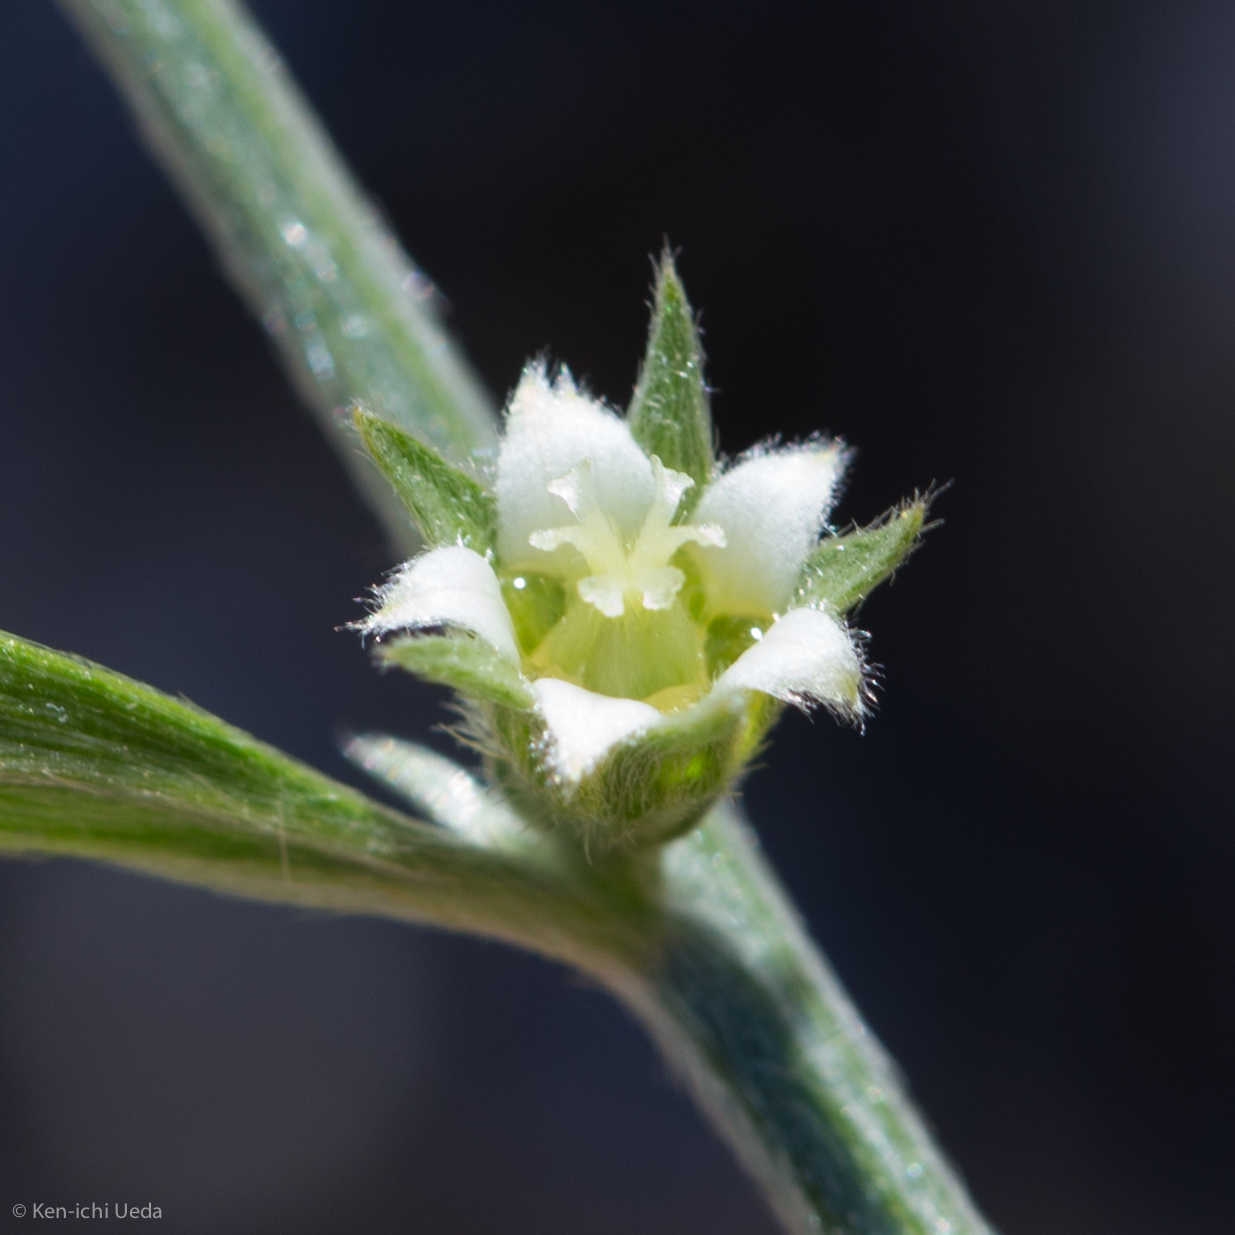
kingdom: Plantae
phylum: Tracheophyta
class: Magnoliopsida
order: Malpighiales
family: Euphorbiaceae
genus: Ditaxis
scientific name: Ditaxis lanceolata
